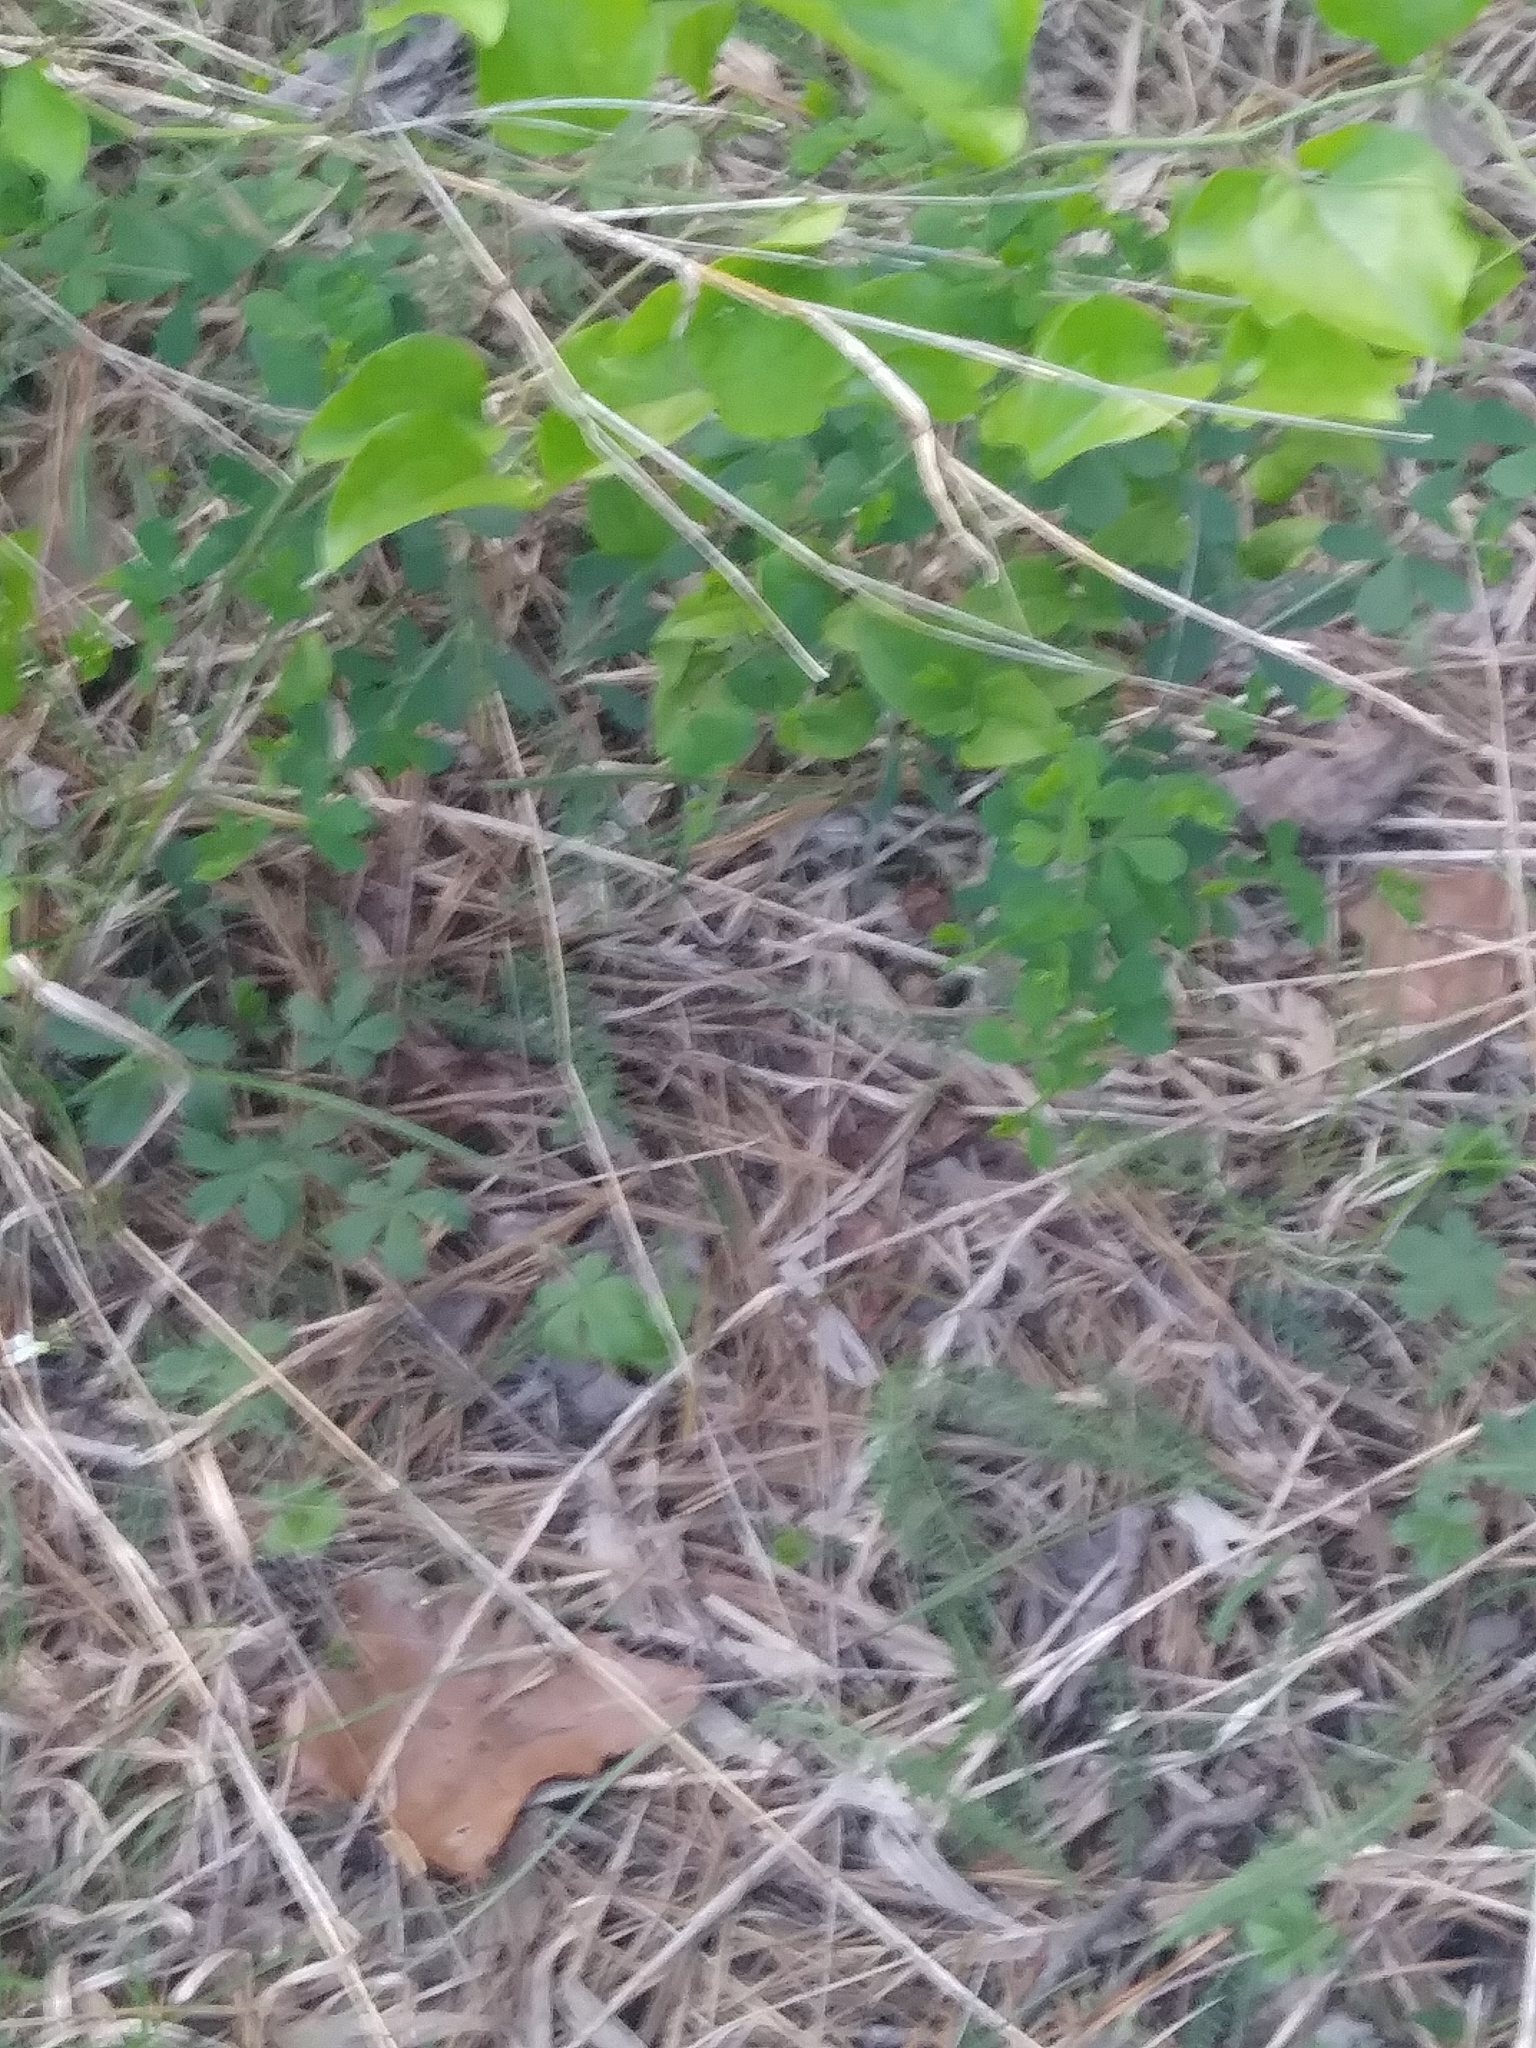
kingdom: Plantae
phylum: Tracheophyta
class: Magnoliopsida
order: Fabales
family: Fabaceae
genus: Baptisia
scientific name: Baptisia tinctoria
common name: Wild indigo
